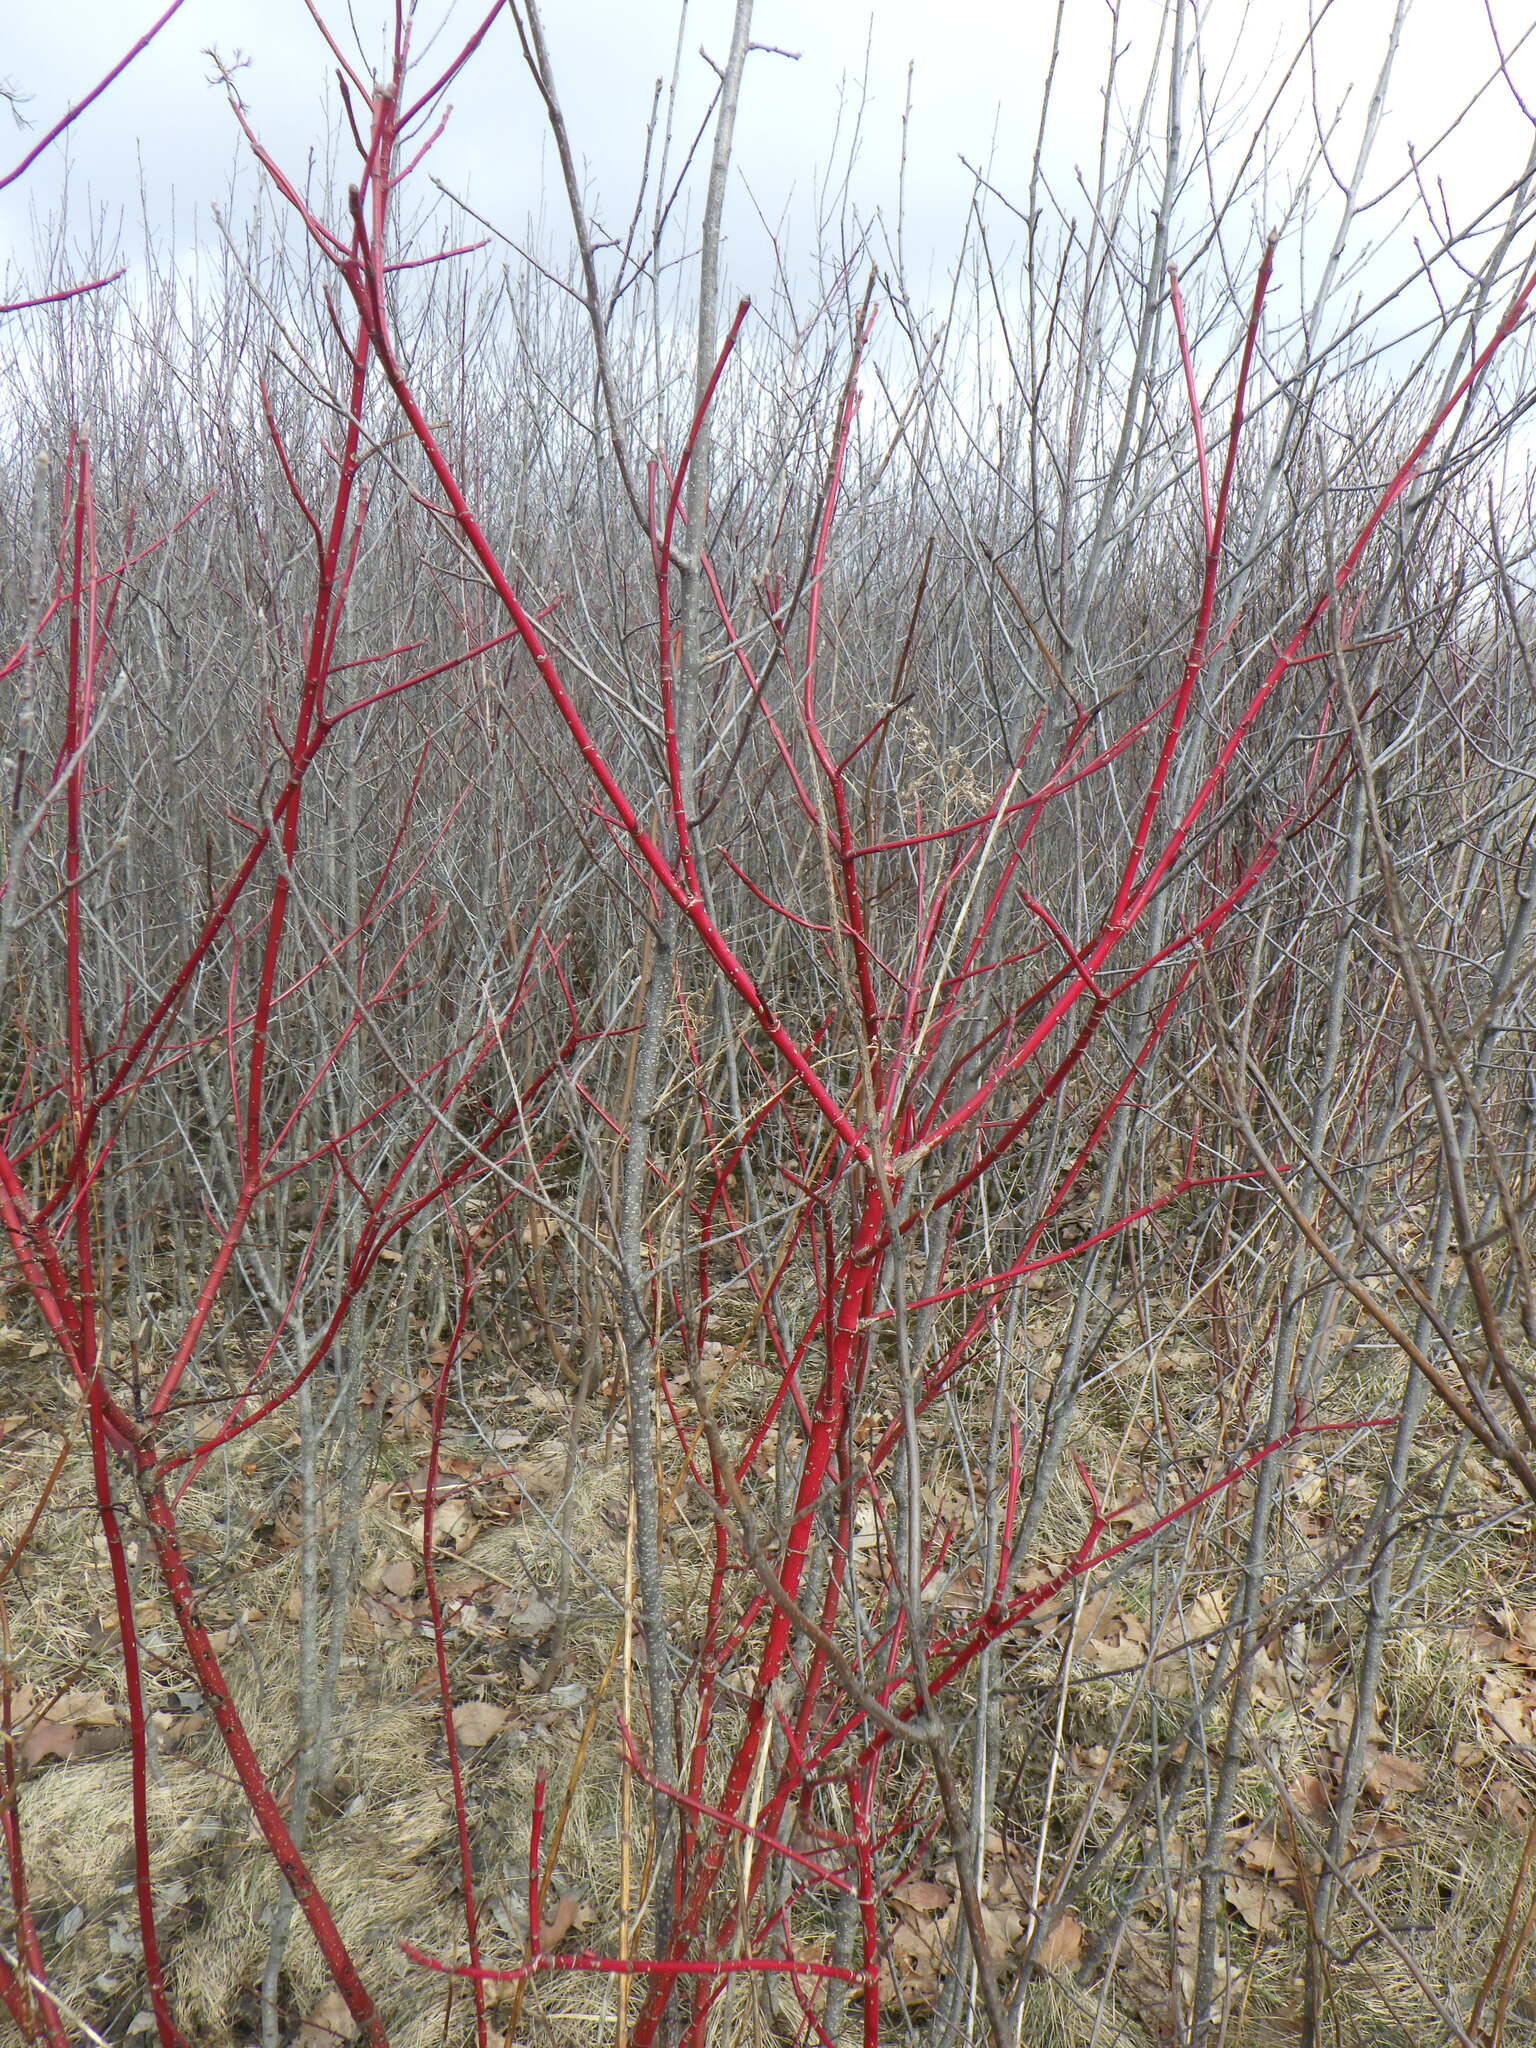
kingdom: Plantae
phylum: Tracheophyta
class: Magnoliopsida
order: Cornales
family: Cornaceae
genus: Cornus
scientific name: Cornus sericea
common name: Red-osier dogwood
